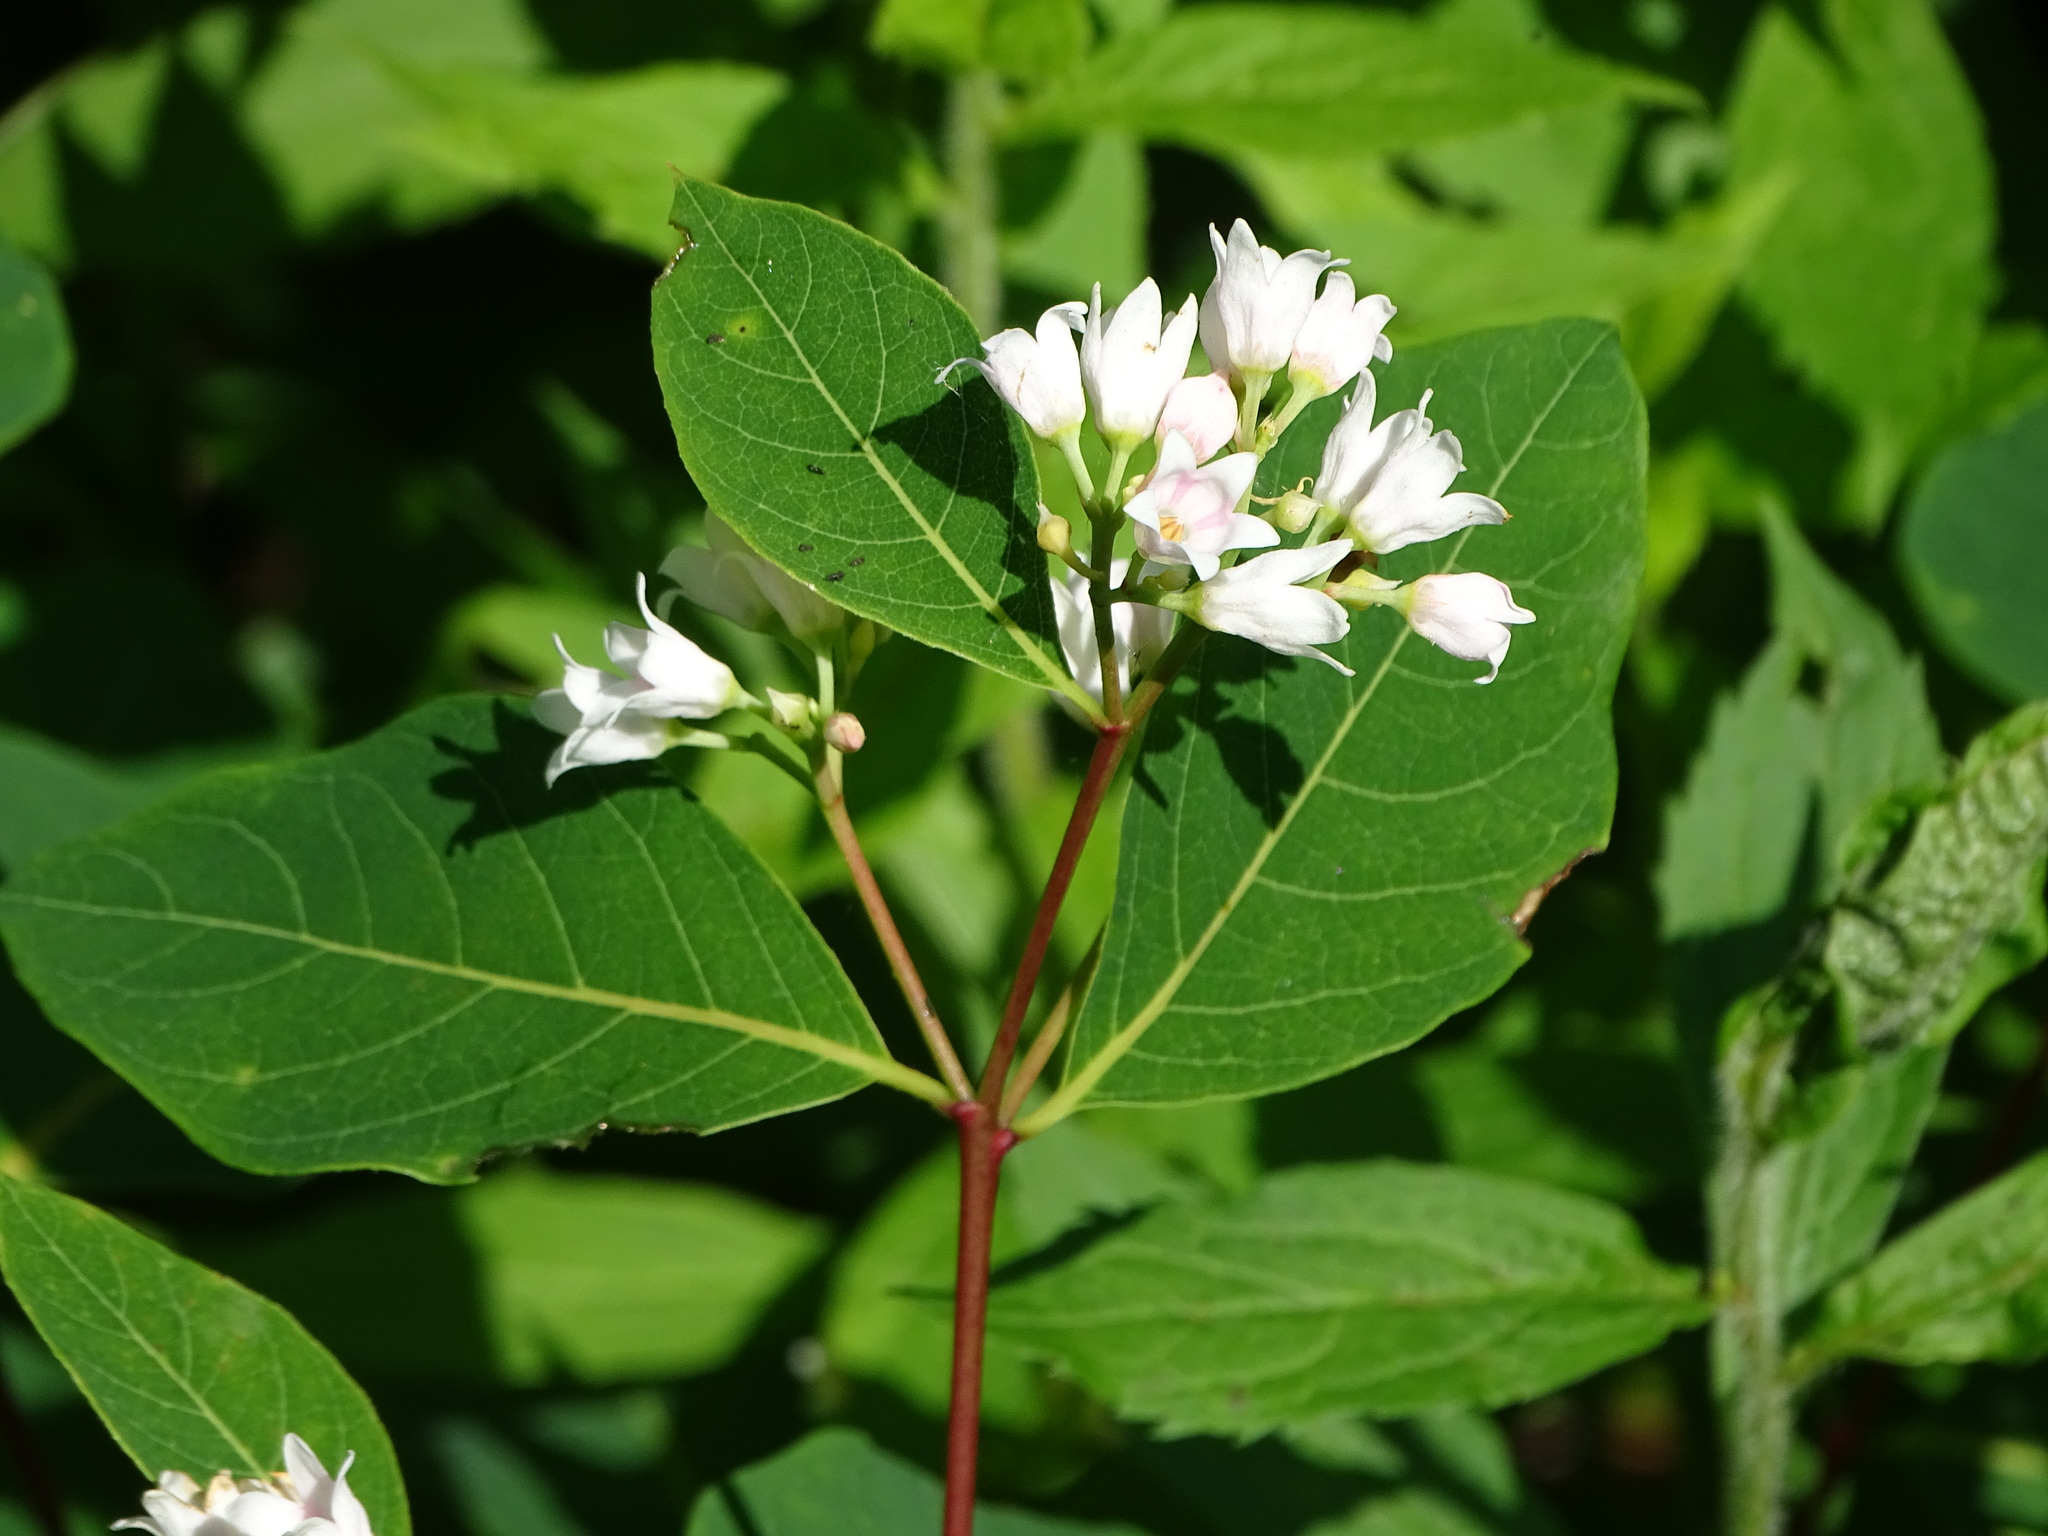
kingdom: Plantae
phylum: Tracheophyta
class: Magnoliopsida
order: Gentianales
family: Apocynaceae
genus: Apocynum
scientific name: Apocynum androsaemifolium
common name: Spreading dogbane
